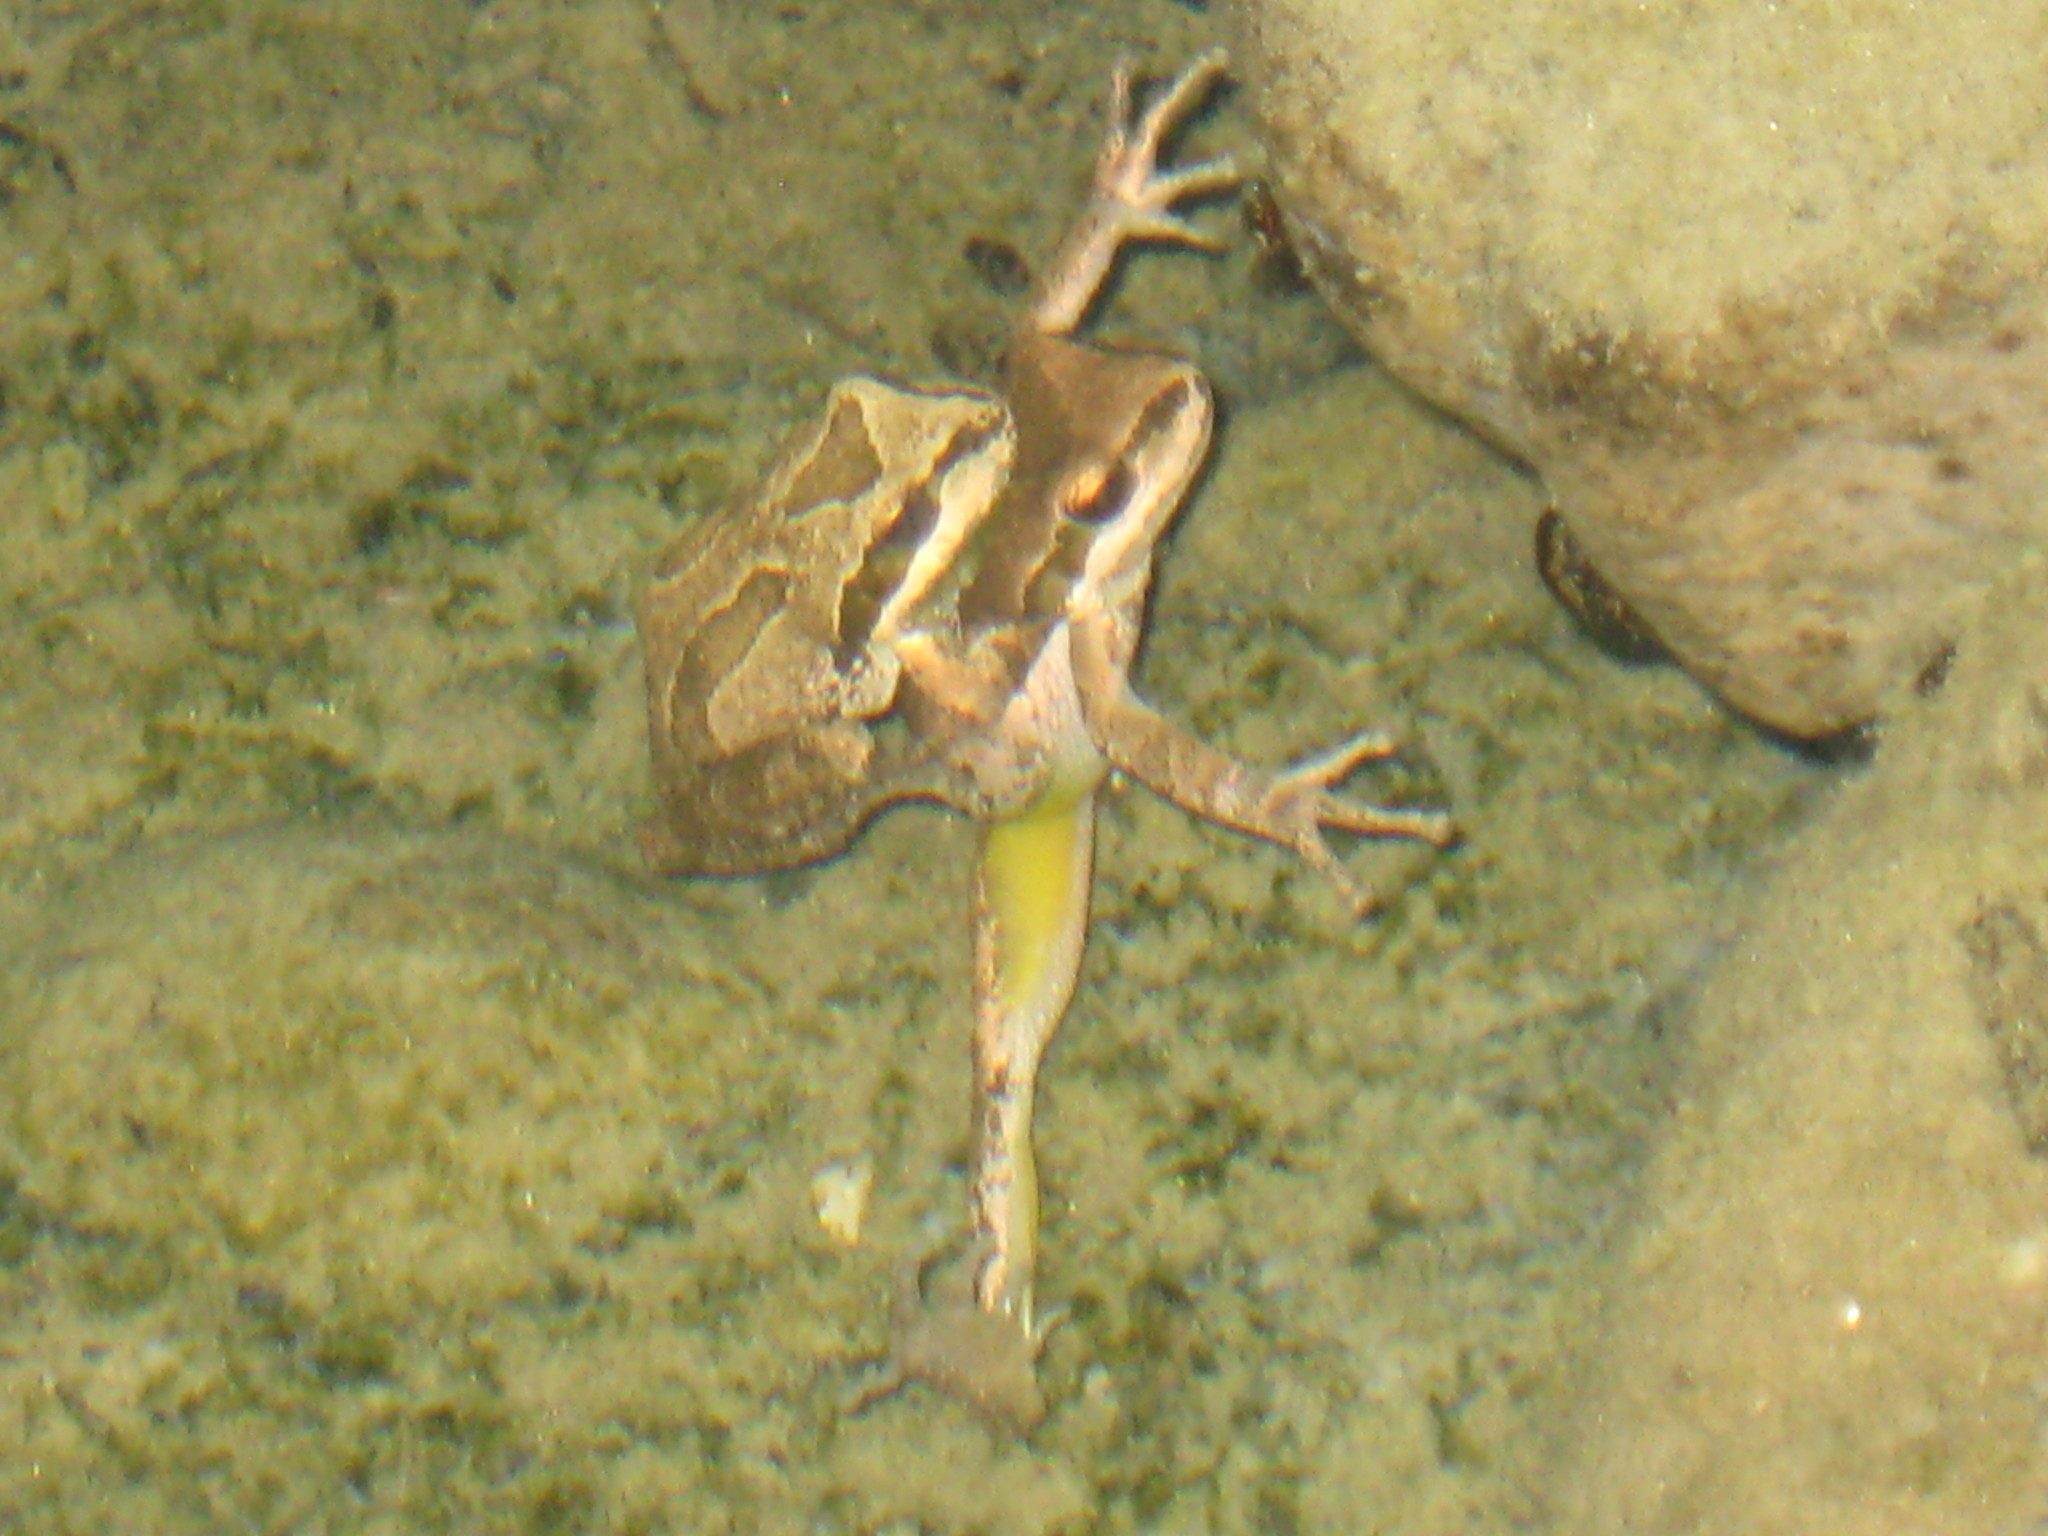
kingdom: Animalia
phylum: Chordata
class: Amphibia
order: Anura
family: Hylidae
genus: Pseudacris
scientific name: Pseudacris regilla
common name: Pacific chorus frog
